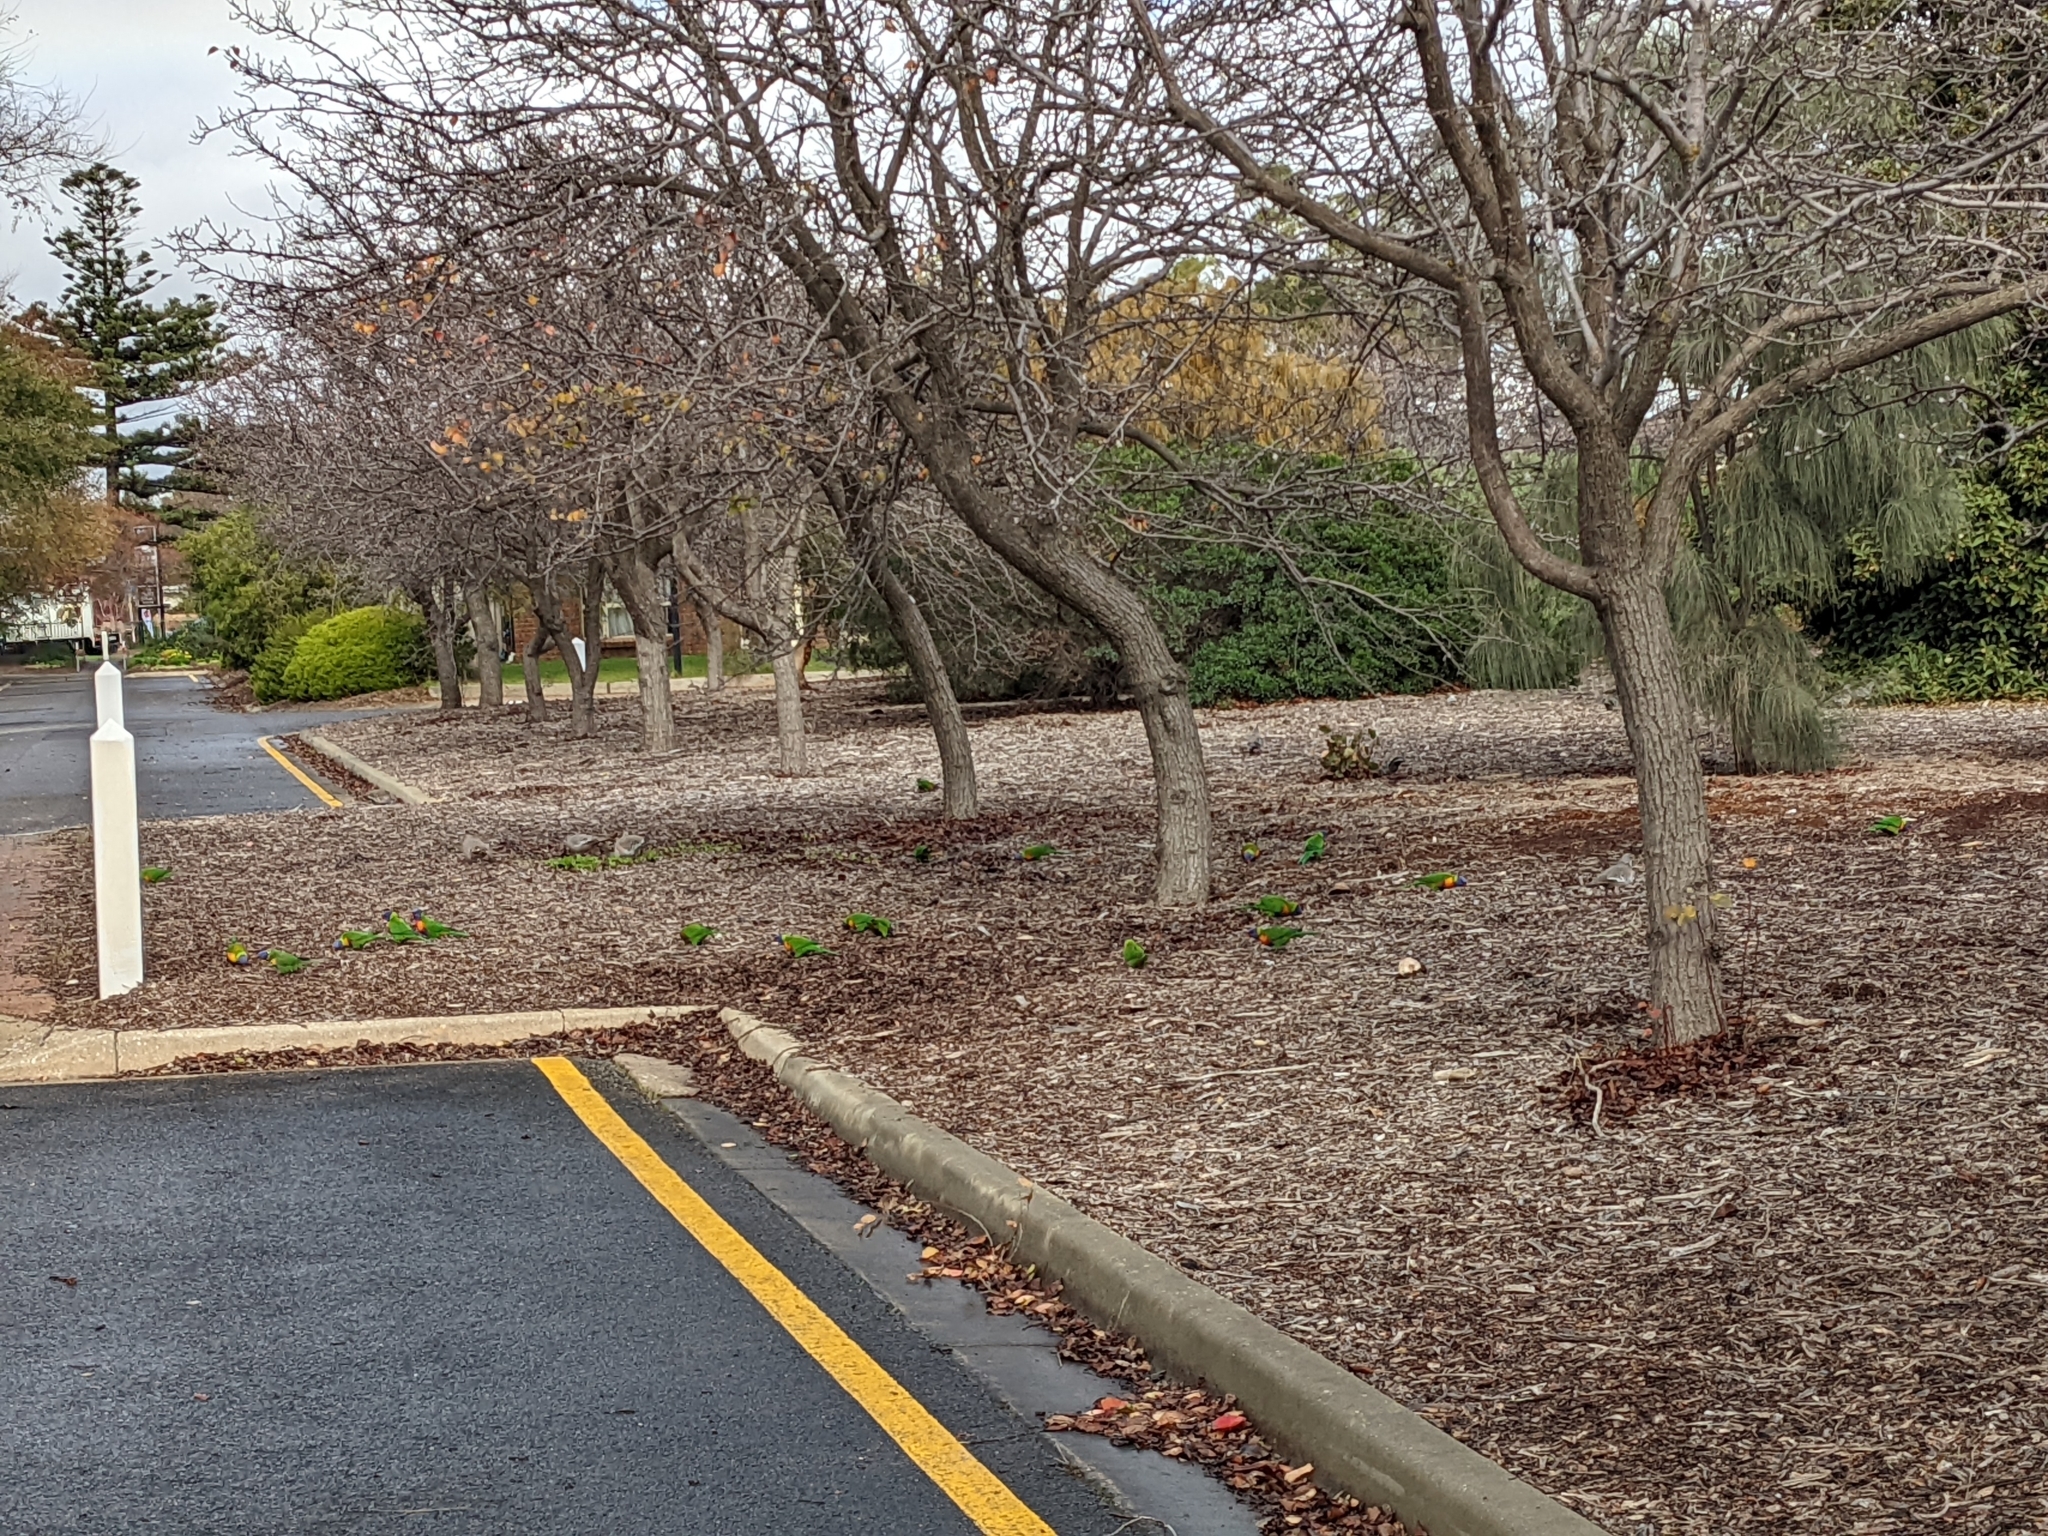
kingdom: Animalia
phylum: Chordata
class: Aves
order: Psittaciformes
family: Psittacidae
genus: Trichoglossus
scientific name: Trichoglossus haematodus
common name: Coconut lorikeet
